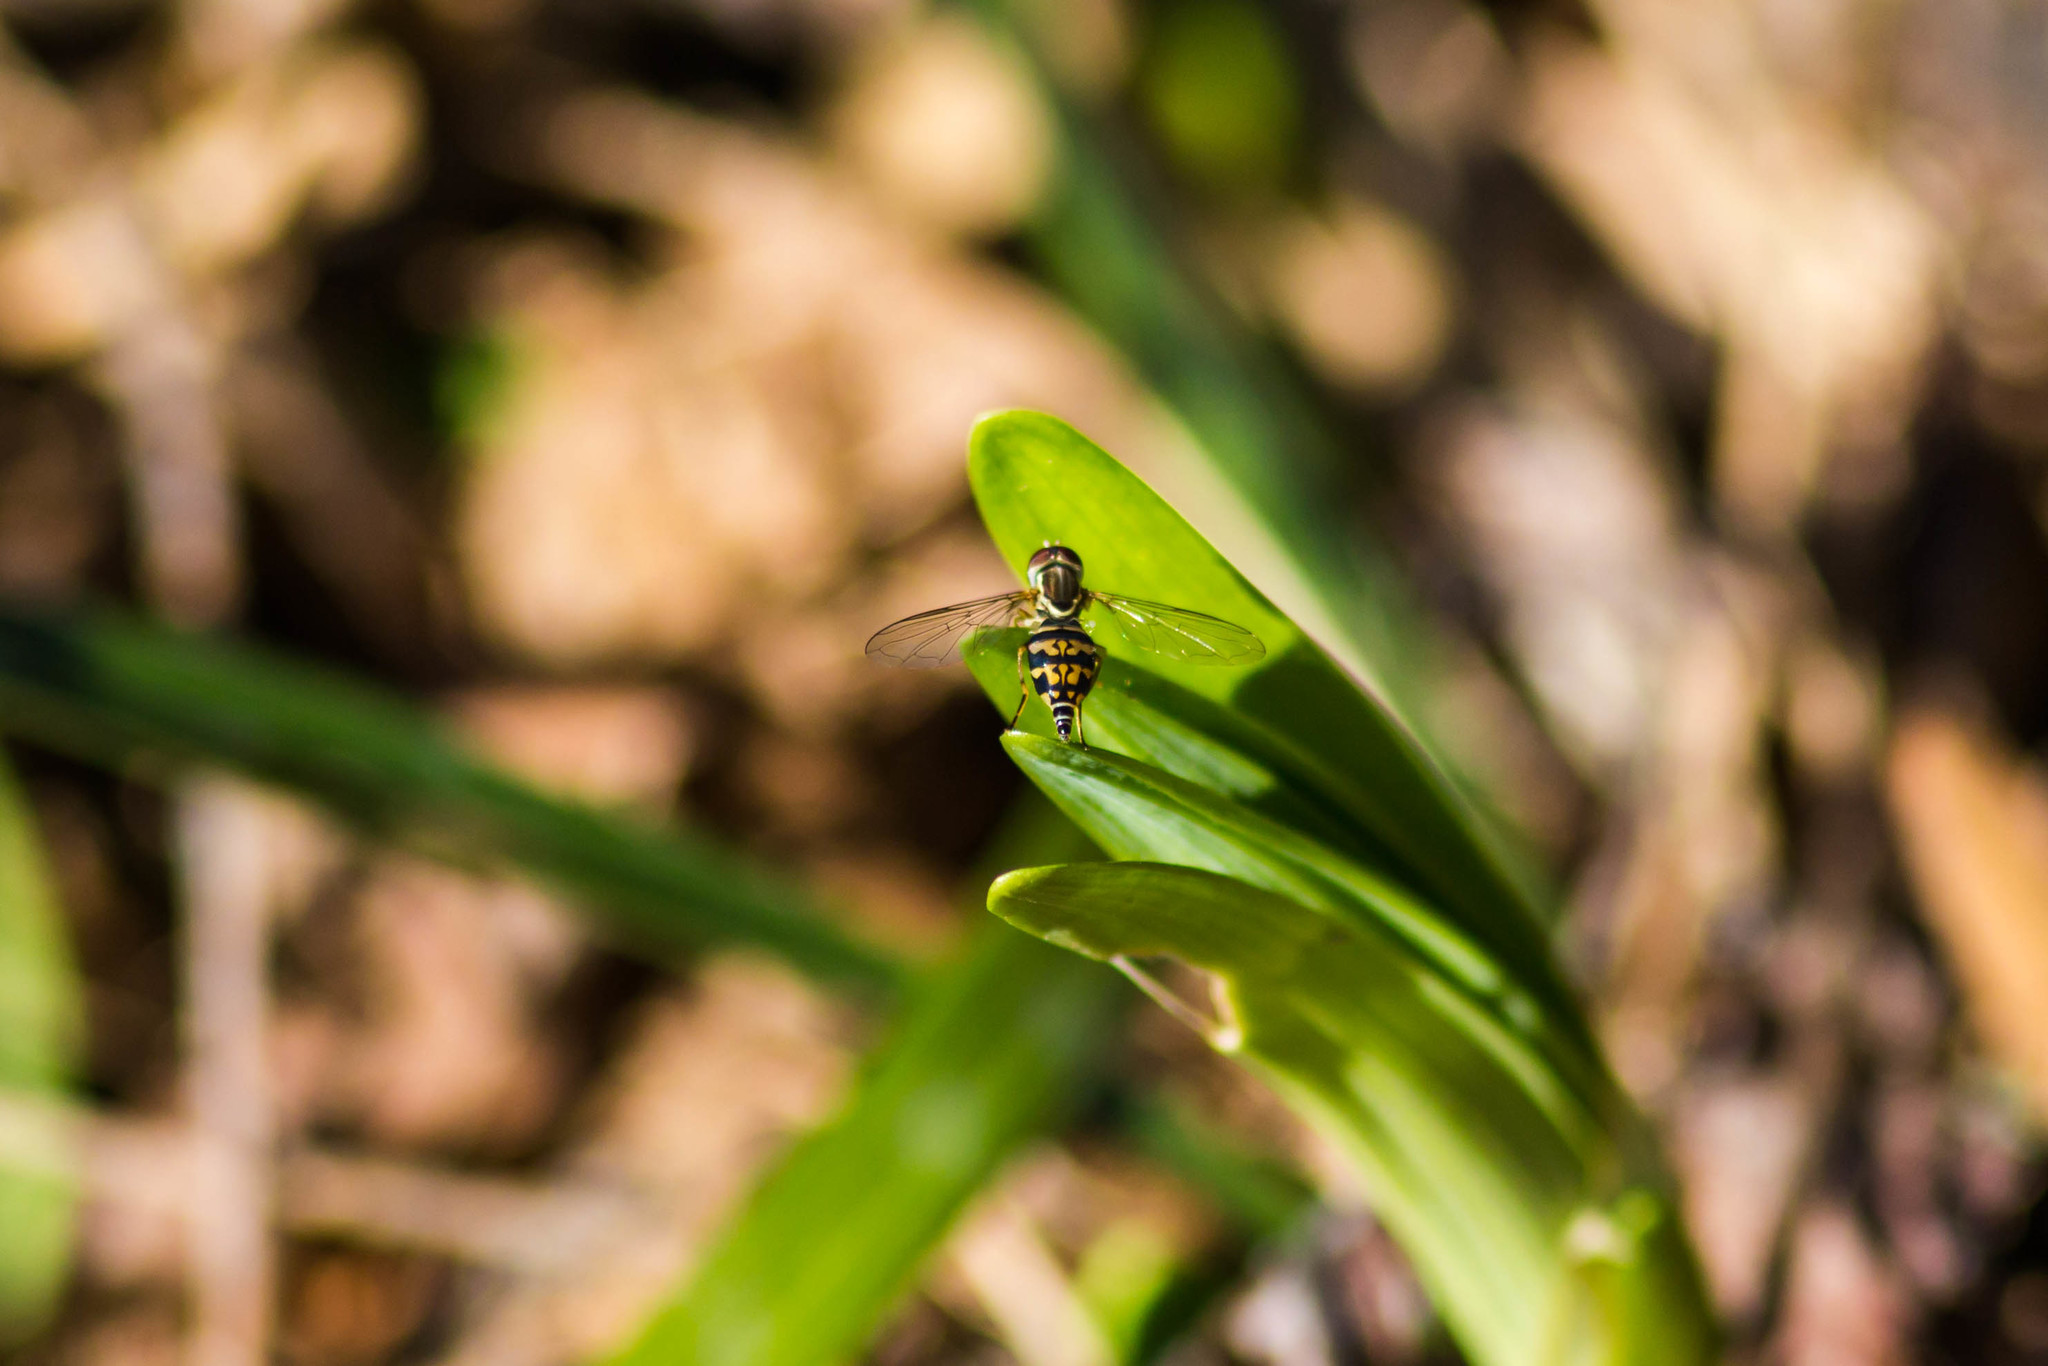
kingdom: Animalia
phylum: Arthropoda
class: Insecta
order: Diptera
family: Syrphidae
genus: Toxomerus
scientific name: Toxomerus geminatus
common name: Eastern calligrapher
